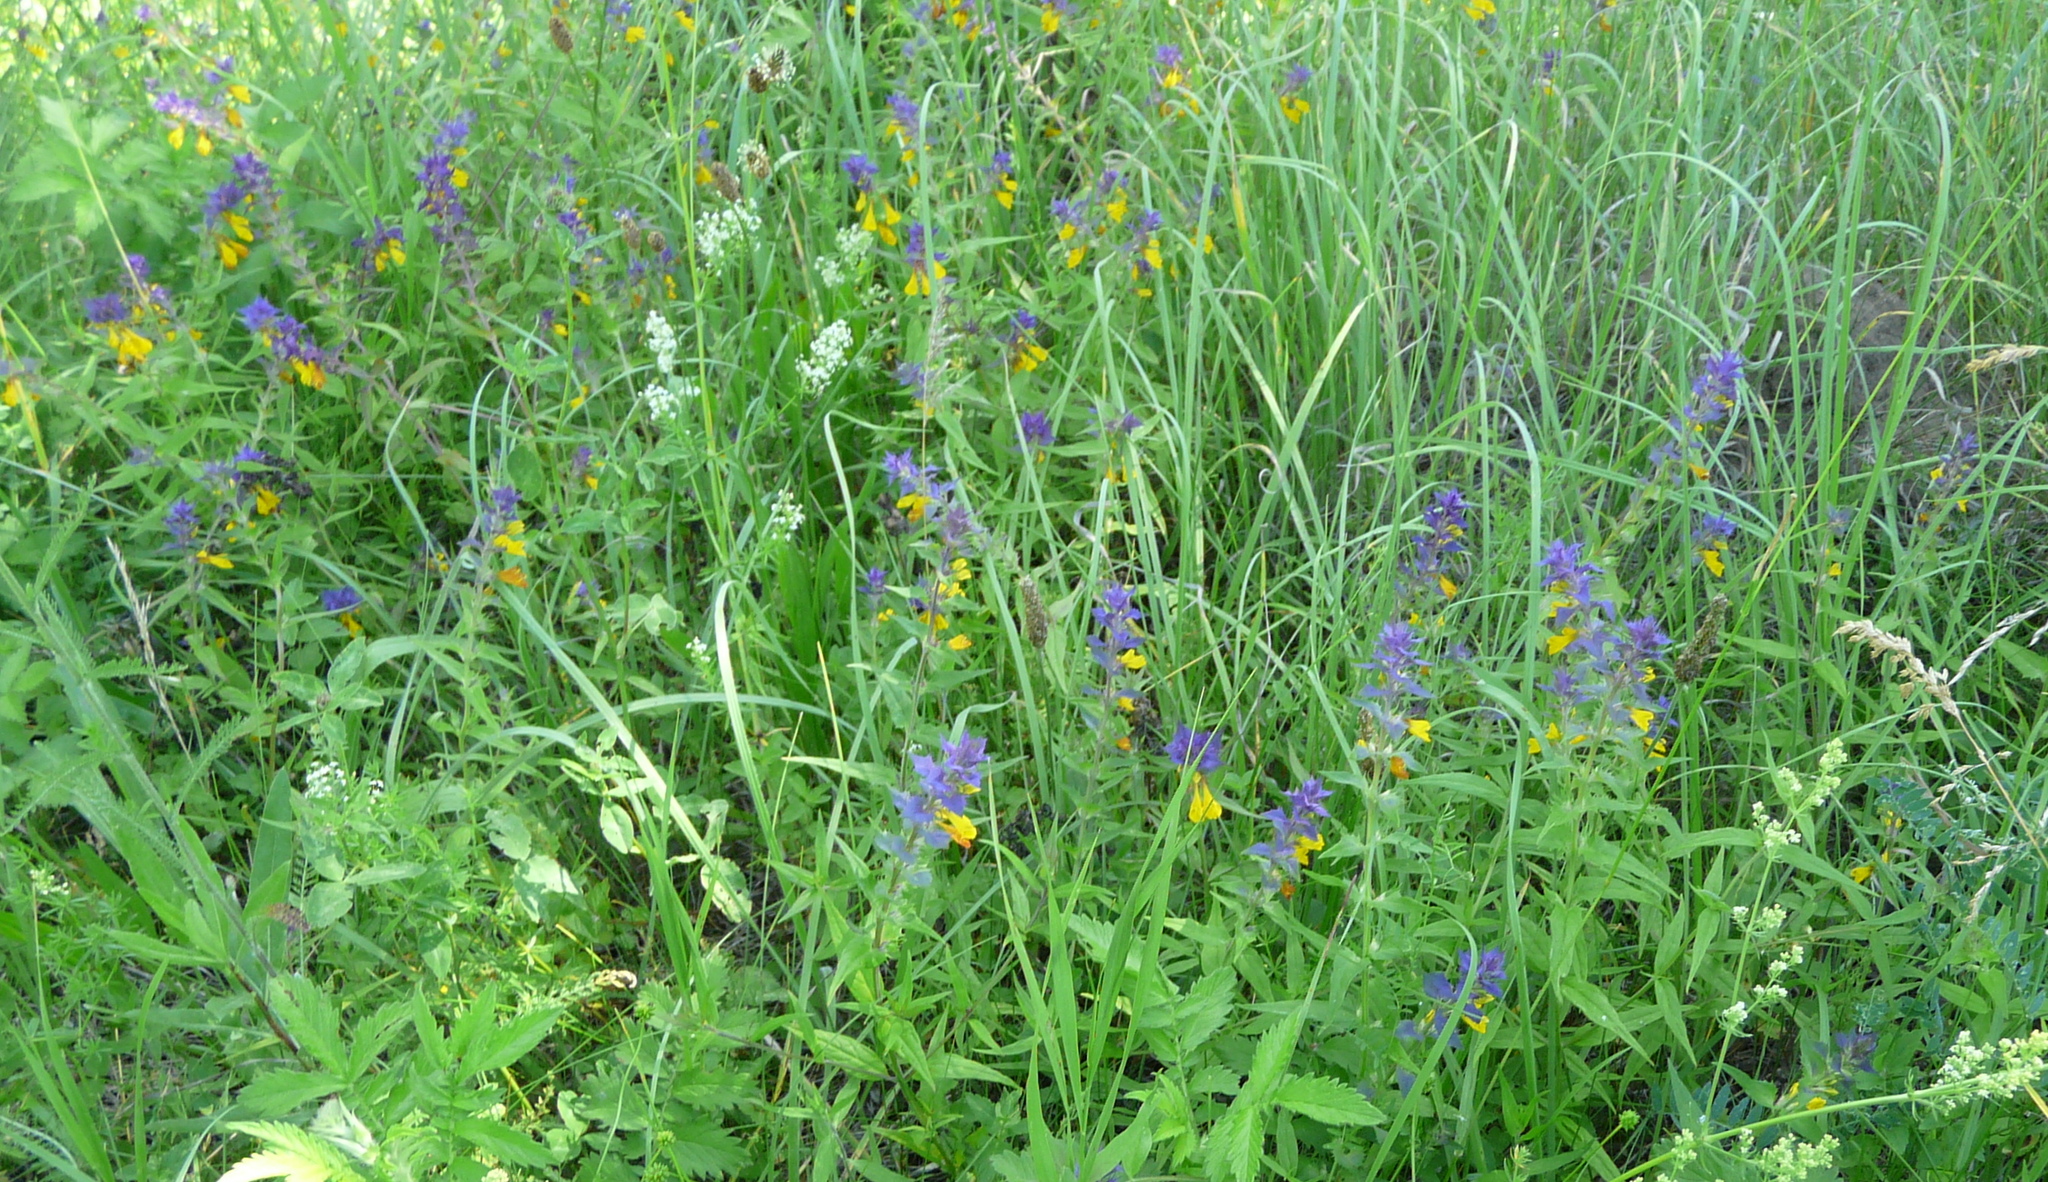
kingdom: Plantae
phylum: Tracheophyta
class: Magnoliopsida
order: Lamiales
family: Orobanchaceae
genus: Melampyrum
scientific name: Melampyrum nemorosum
